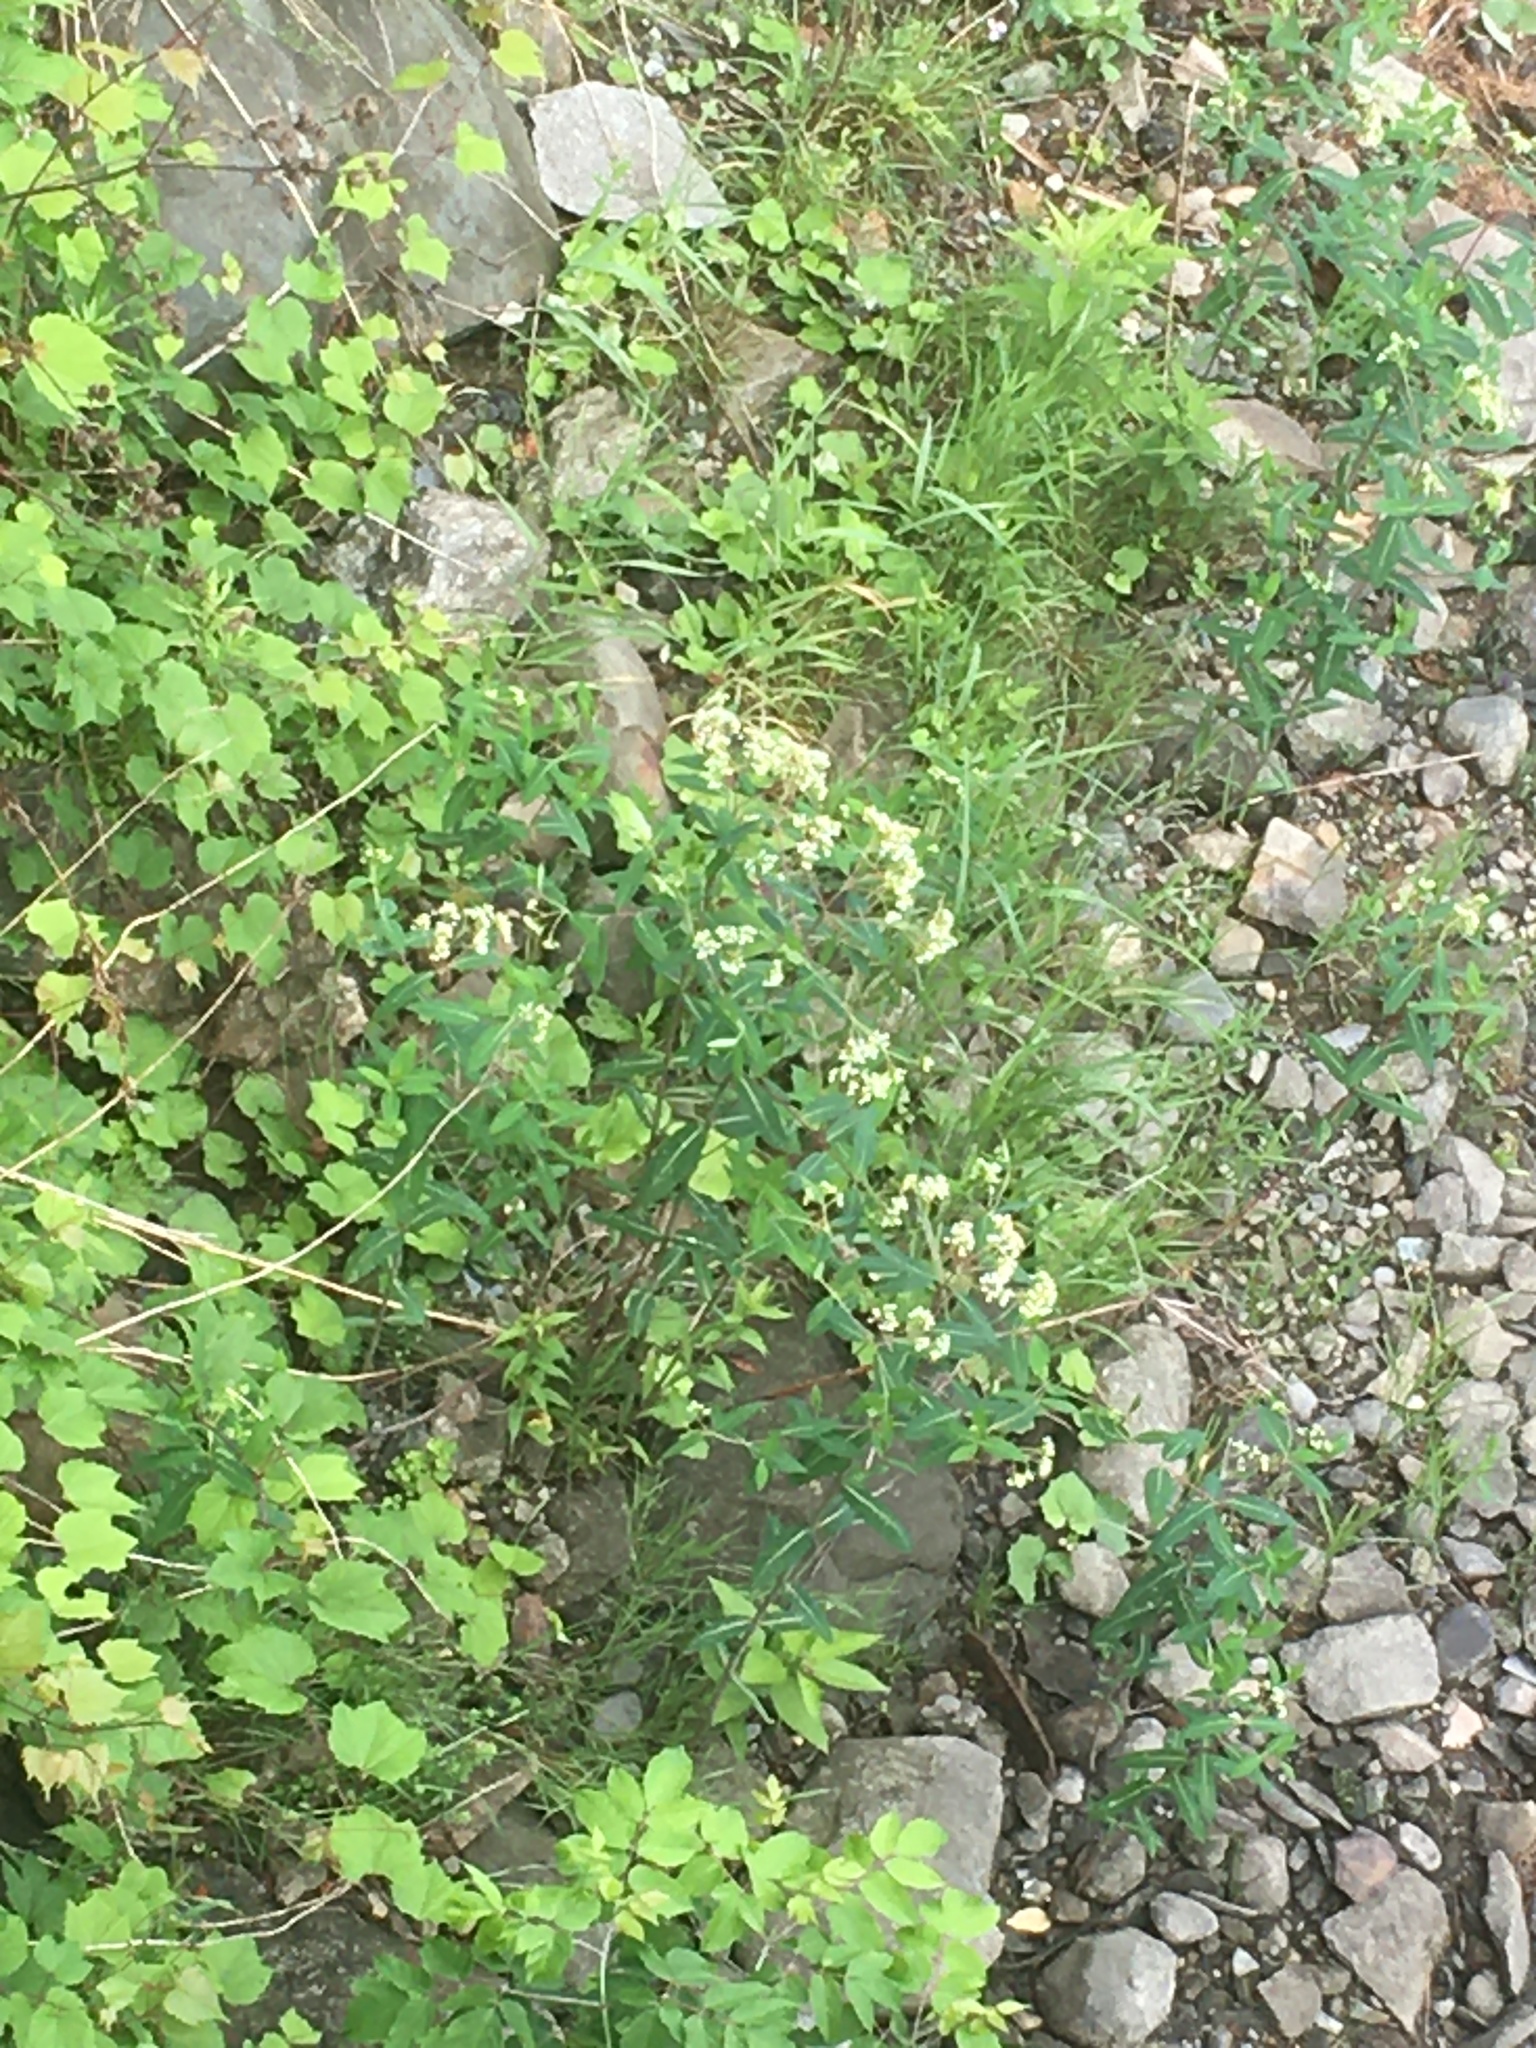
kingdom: Plantae
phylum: Tracheophyta
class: Magnoliopsida
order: Gentianales
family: Apocynaceae
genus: Apocynum
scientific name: Apocynum cannabinum
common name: Hemp dogbane
